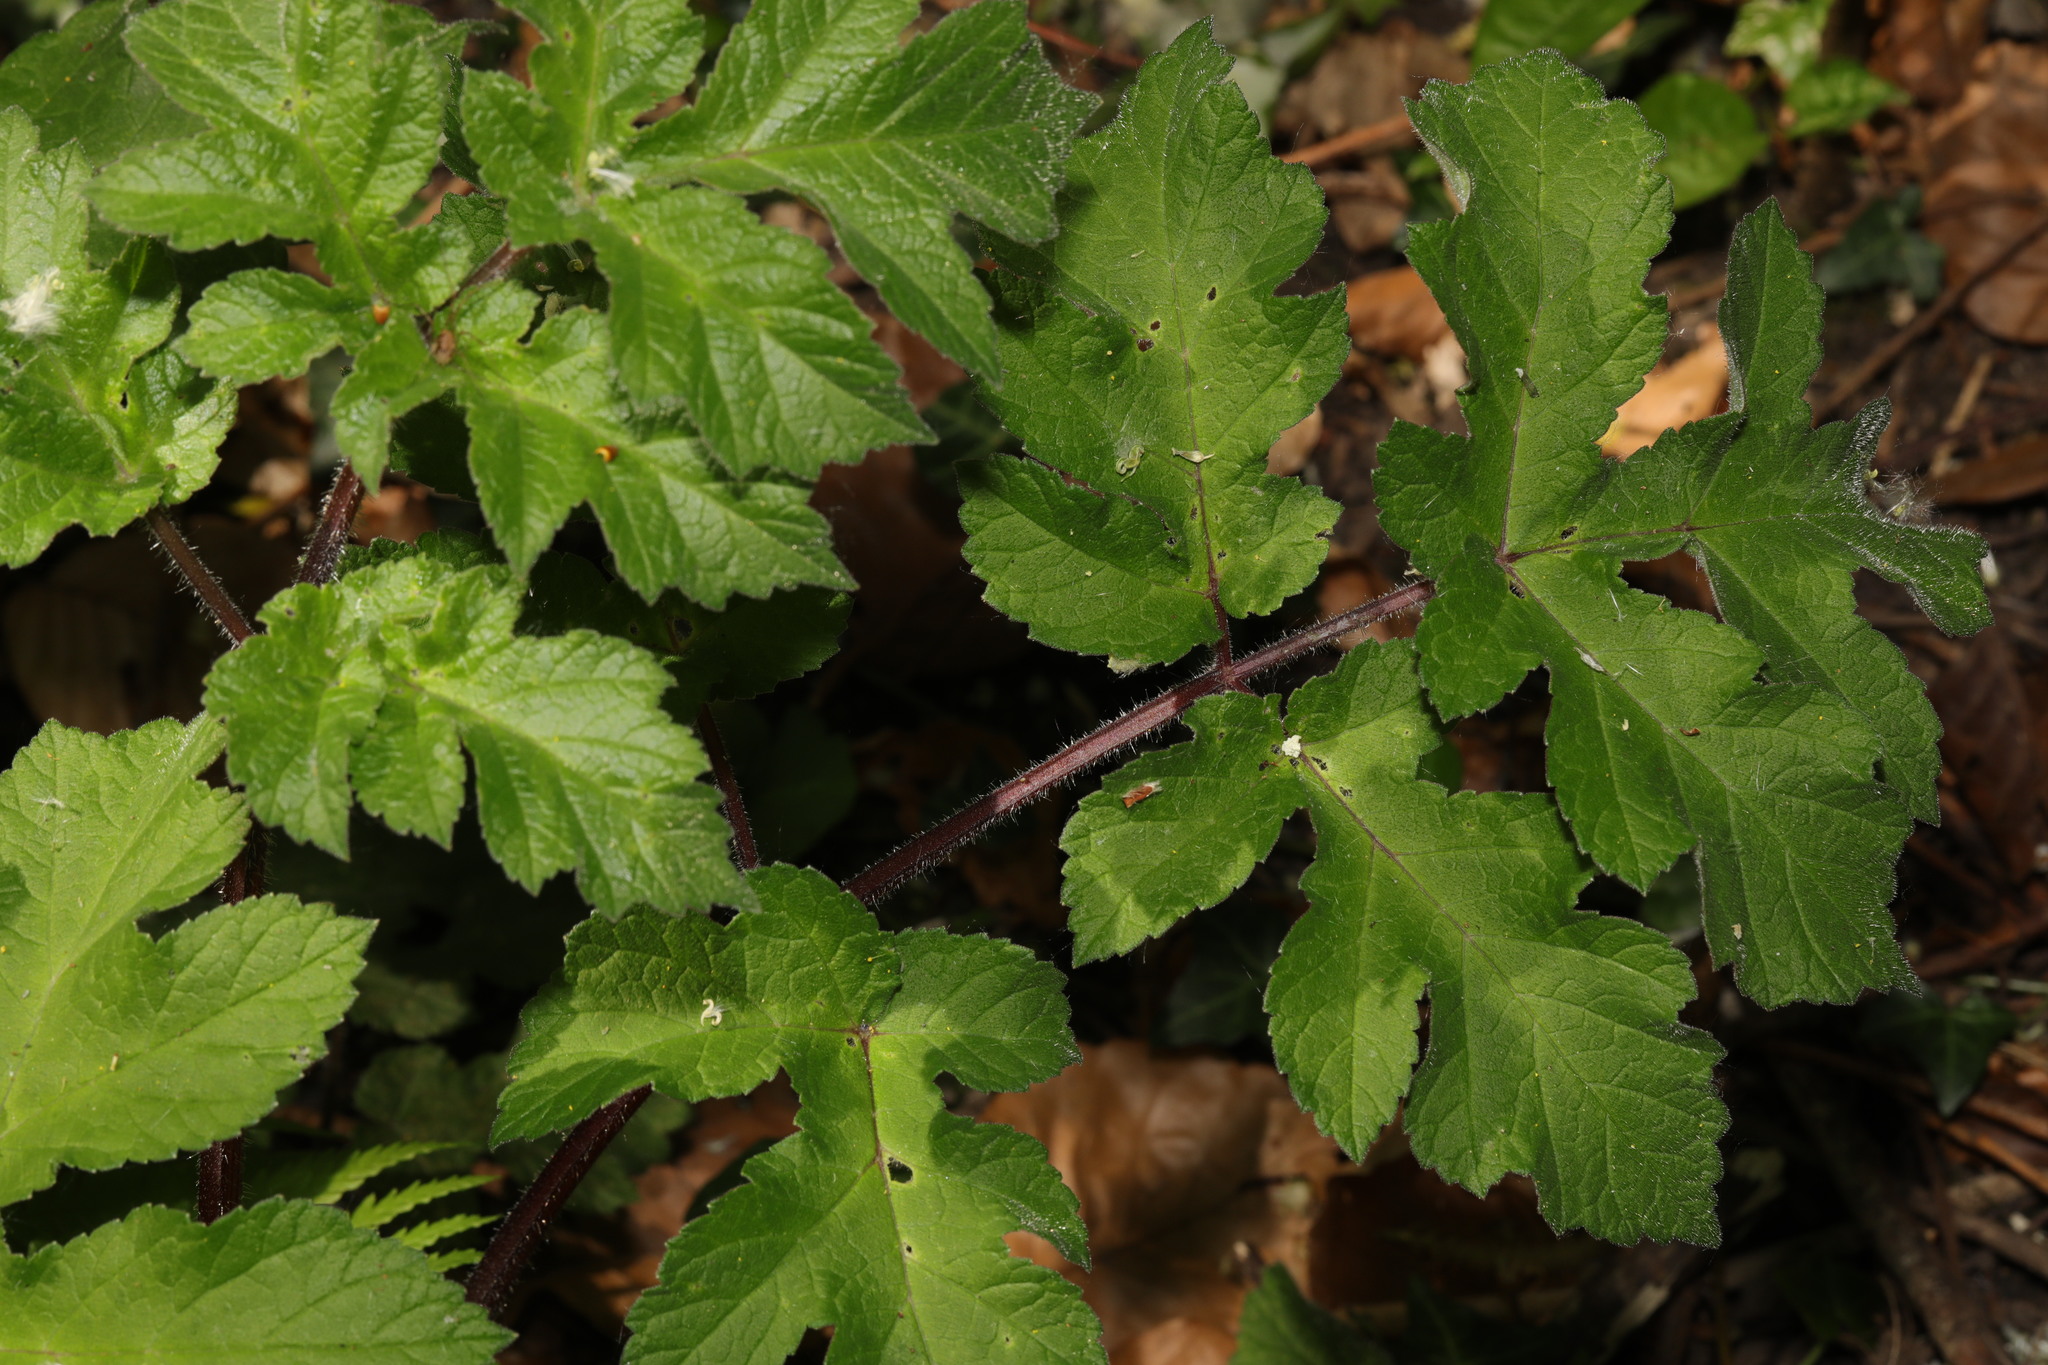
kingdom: Plantae
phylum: Tracheophyta
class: Magnoliopsida
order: Apiales
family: Apiaceae
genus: Heracleum
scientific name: Heracleum sphondylium
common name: Hogweed
